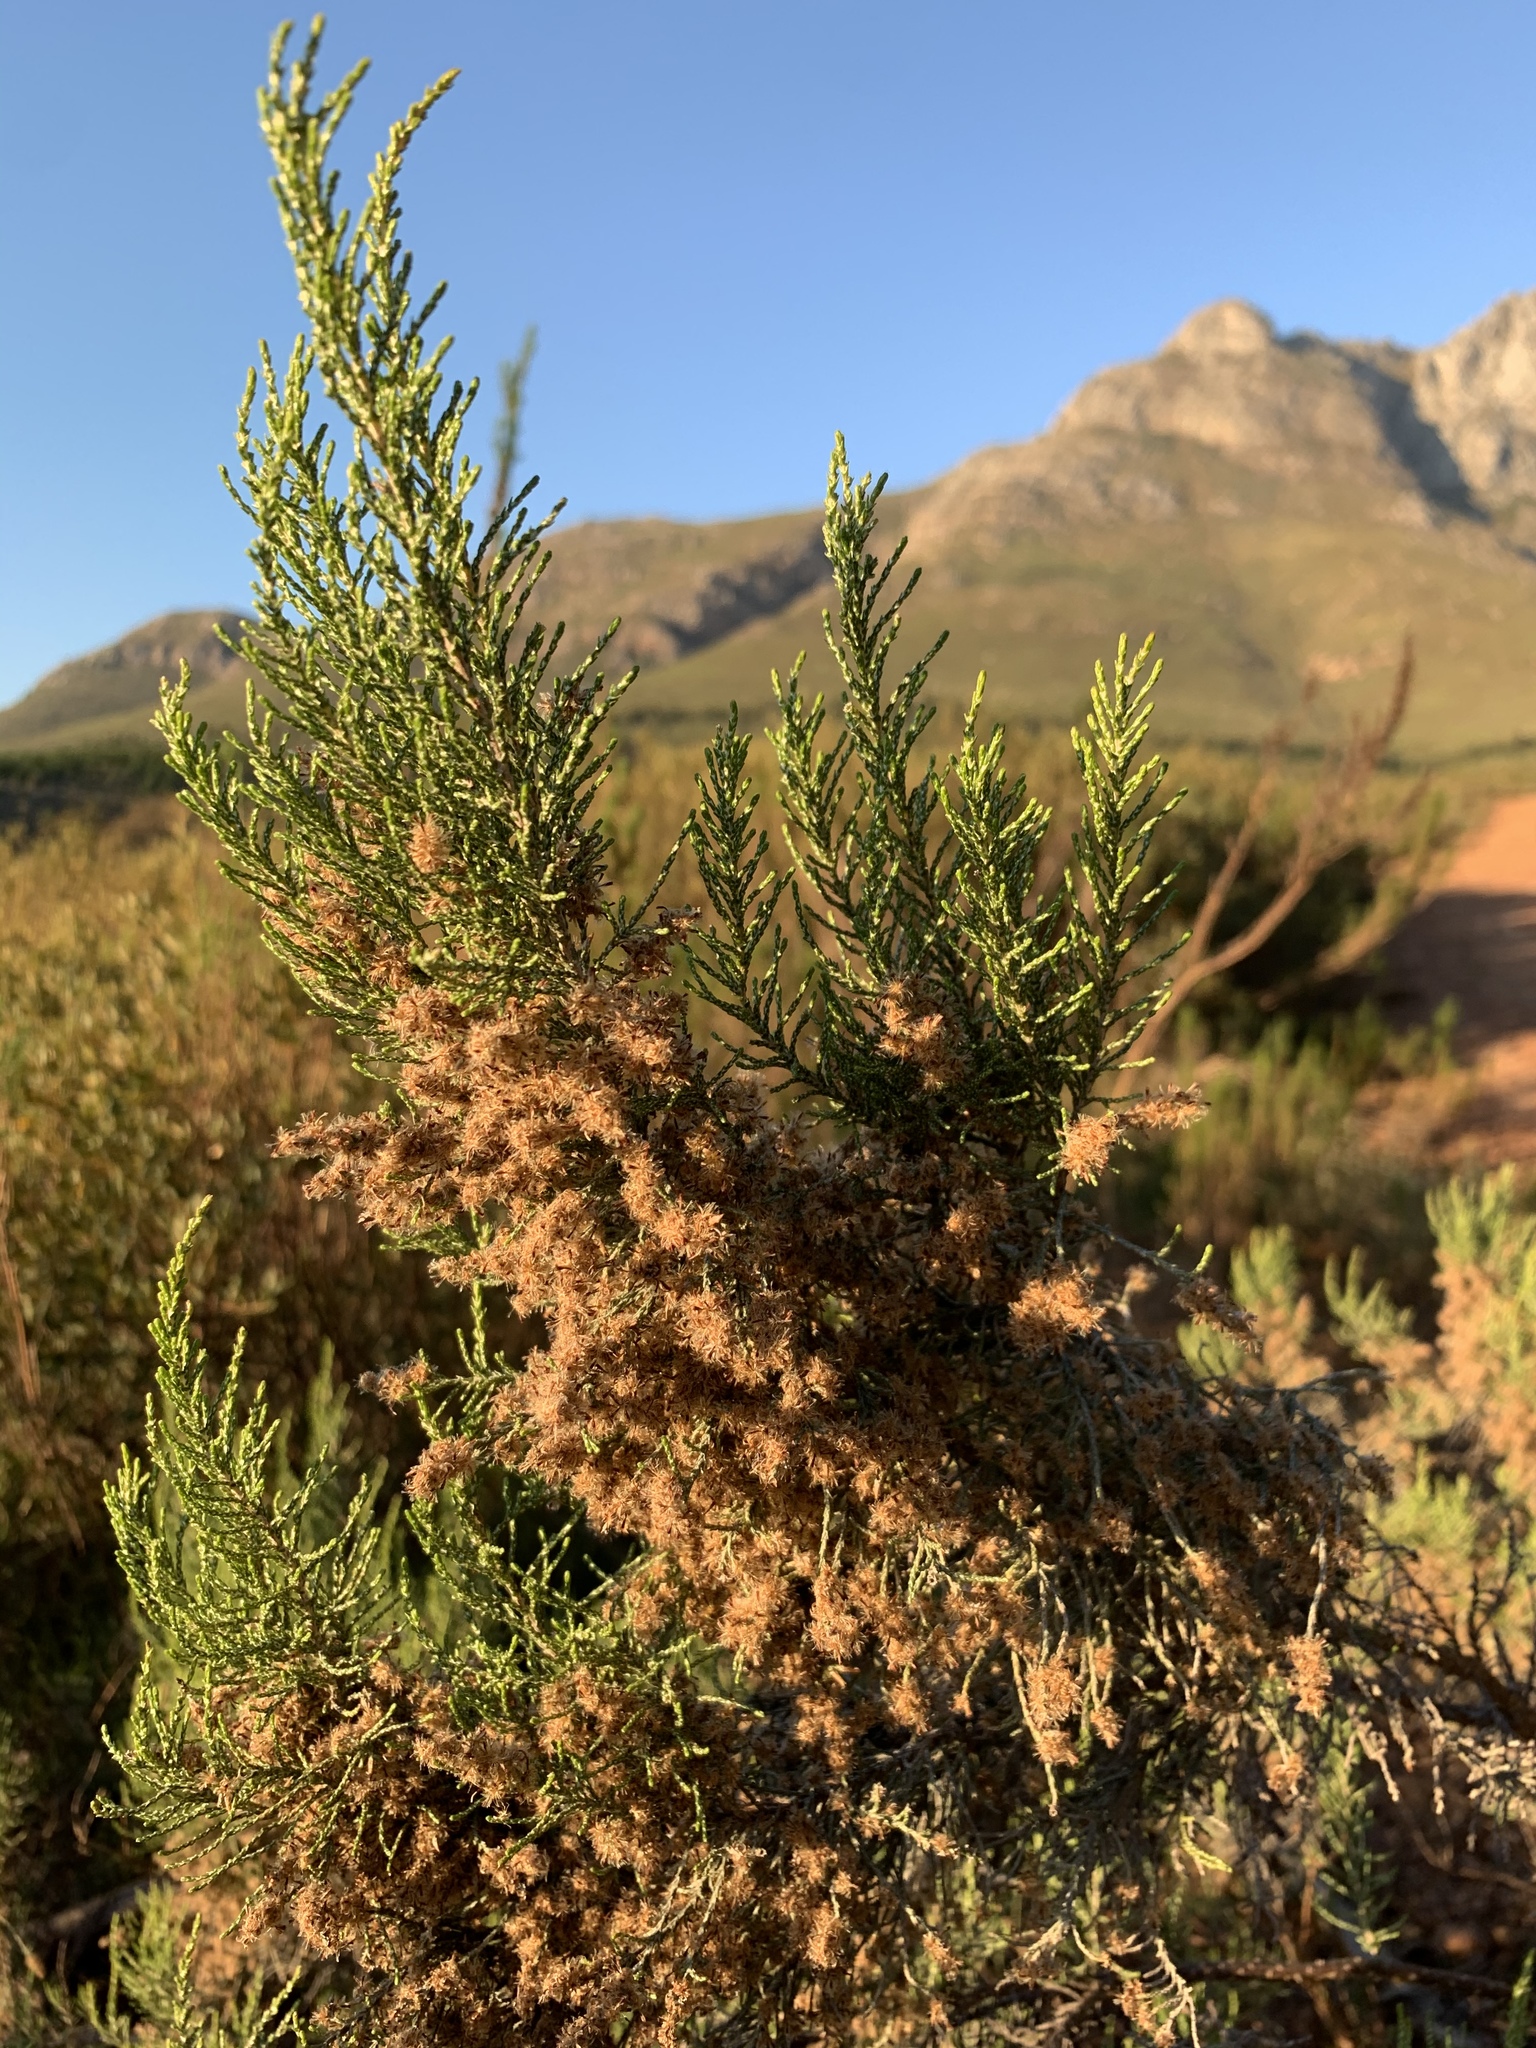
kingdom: Plantae
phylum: Tracheophyta
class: Magnoliopsida
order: Asterales
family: Asteraceae
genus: Dicerothamnus
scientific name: Dicerothamnus rhinocerotis
